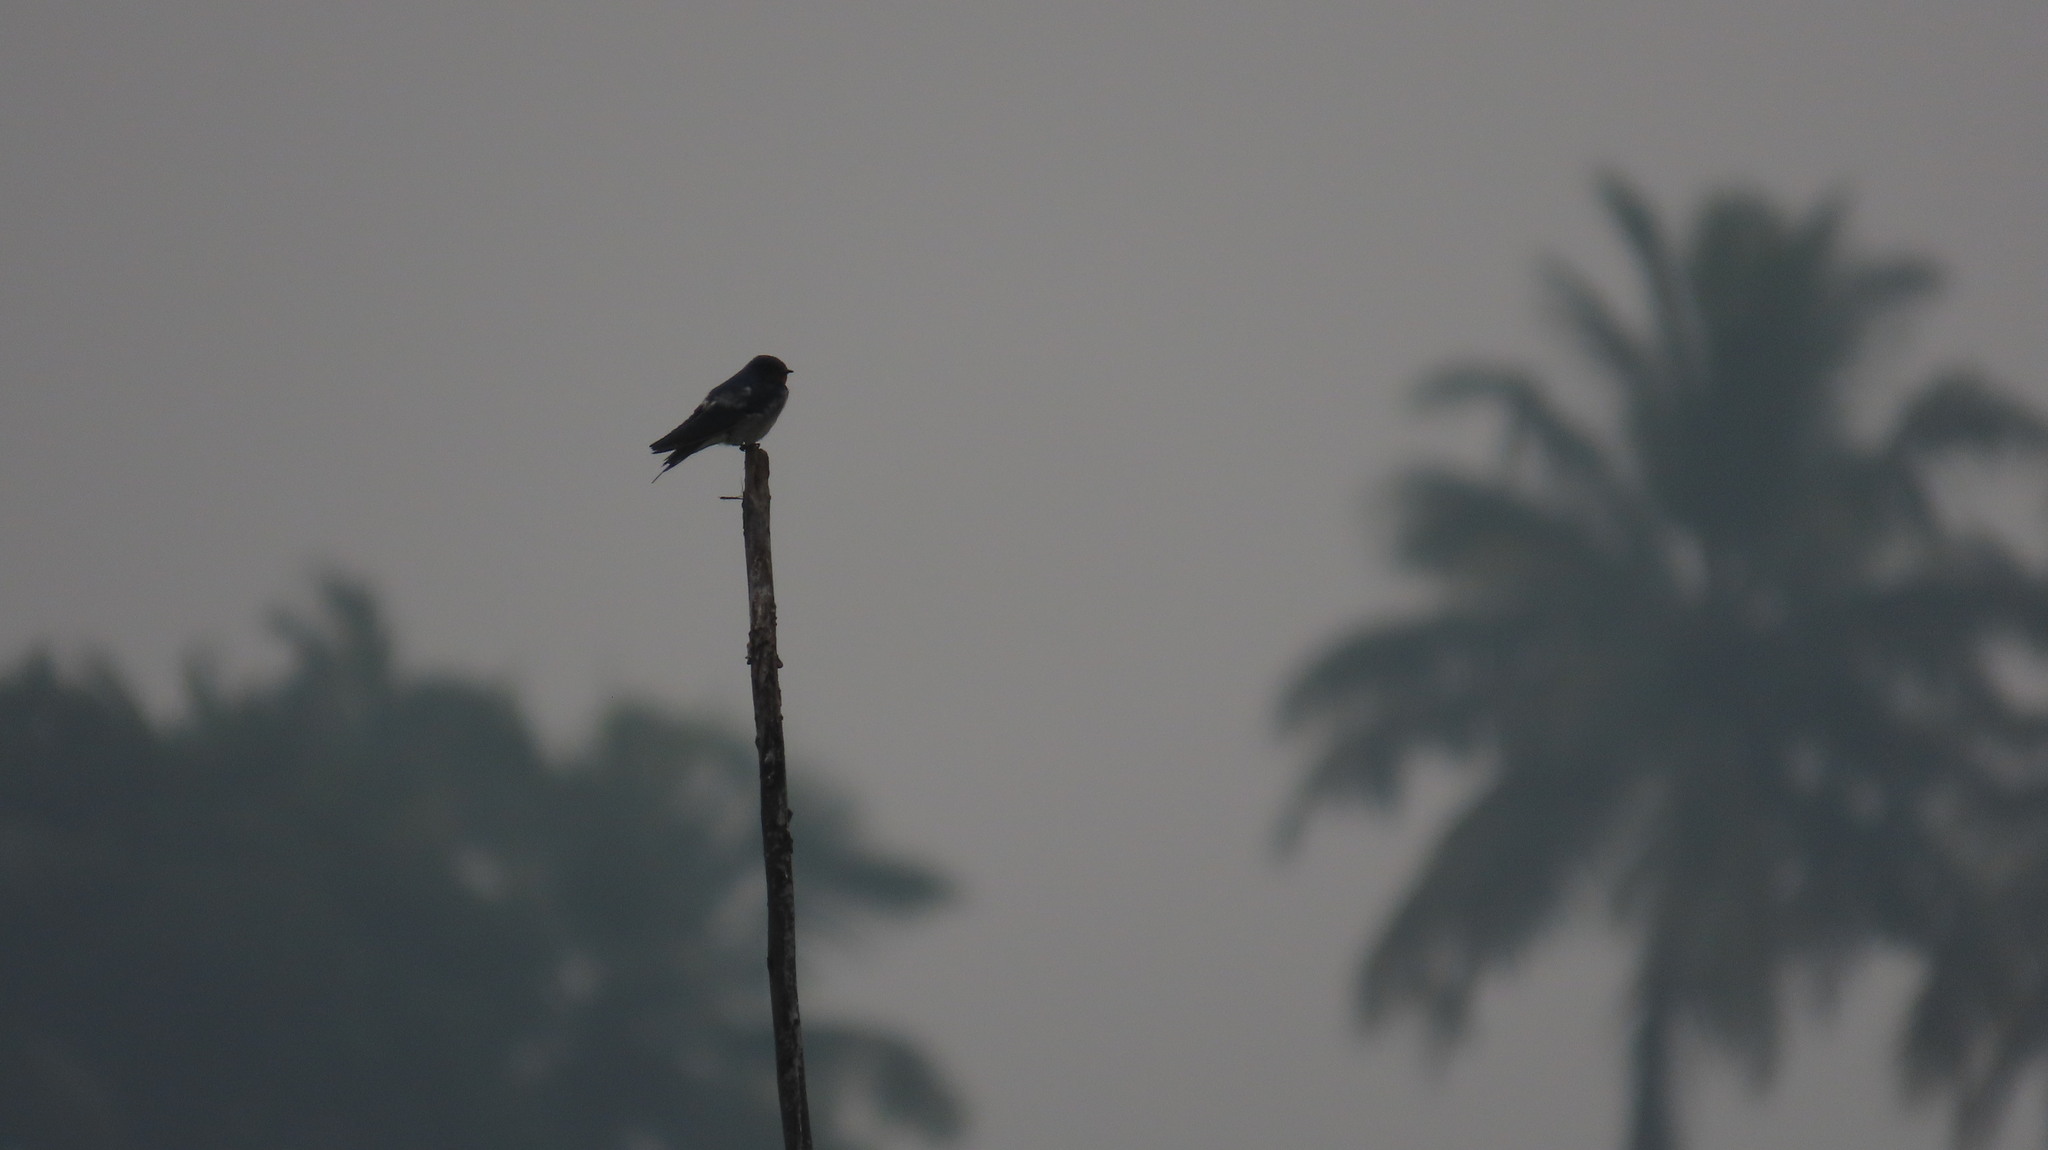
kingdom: Animalia
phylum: Chordata
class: Aves
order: Passeriformes
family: Hirundinidae
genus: Hirundo
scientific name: Hirundo rustica
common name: Barn swallow
